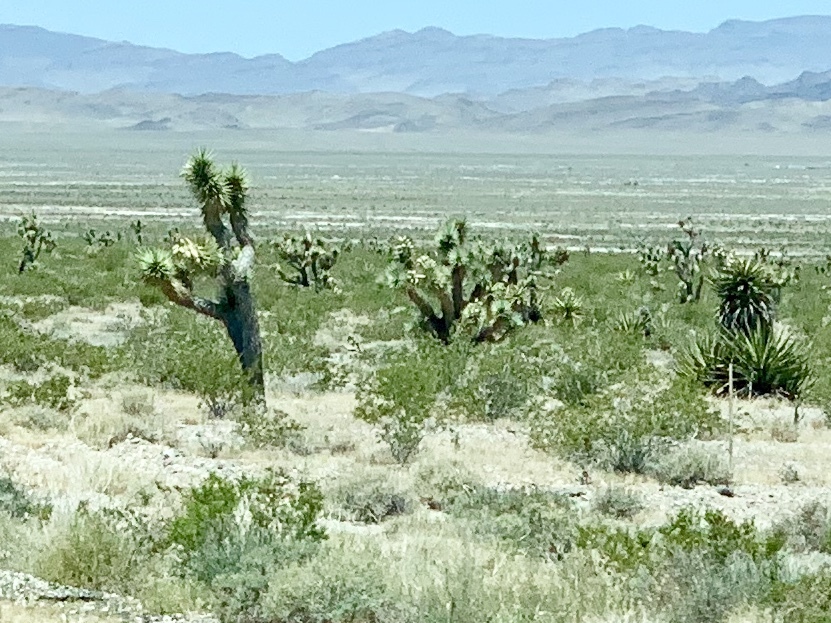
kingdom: Plantae
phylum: Tracheophyta
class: Liliopsida
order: Asparagales
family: Asparagaceae
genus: Yucca
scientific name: Yucca brevifolia
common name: Joshua tree
